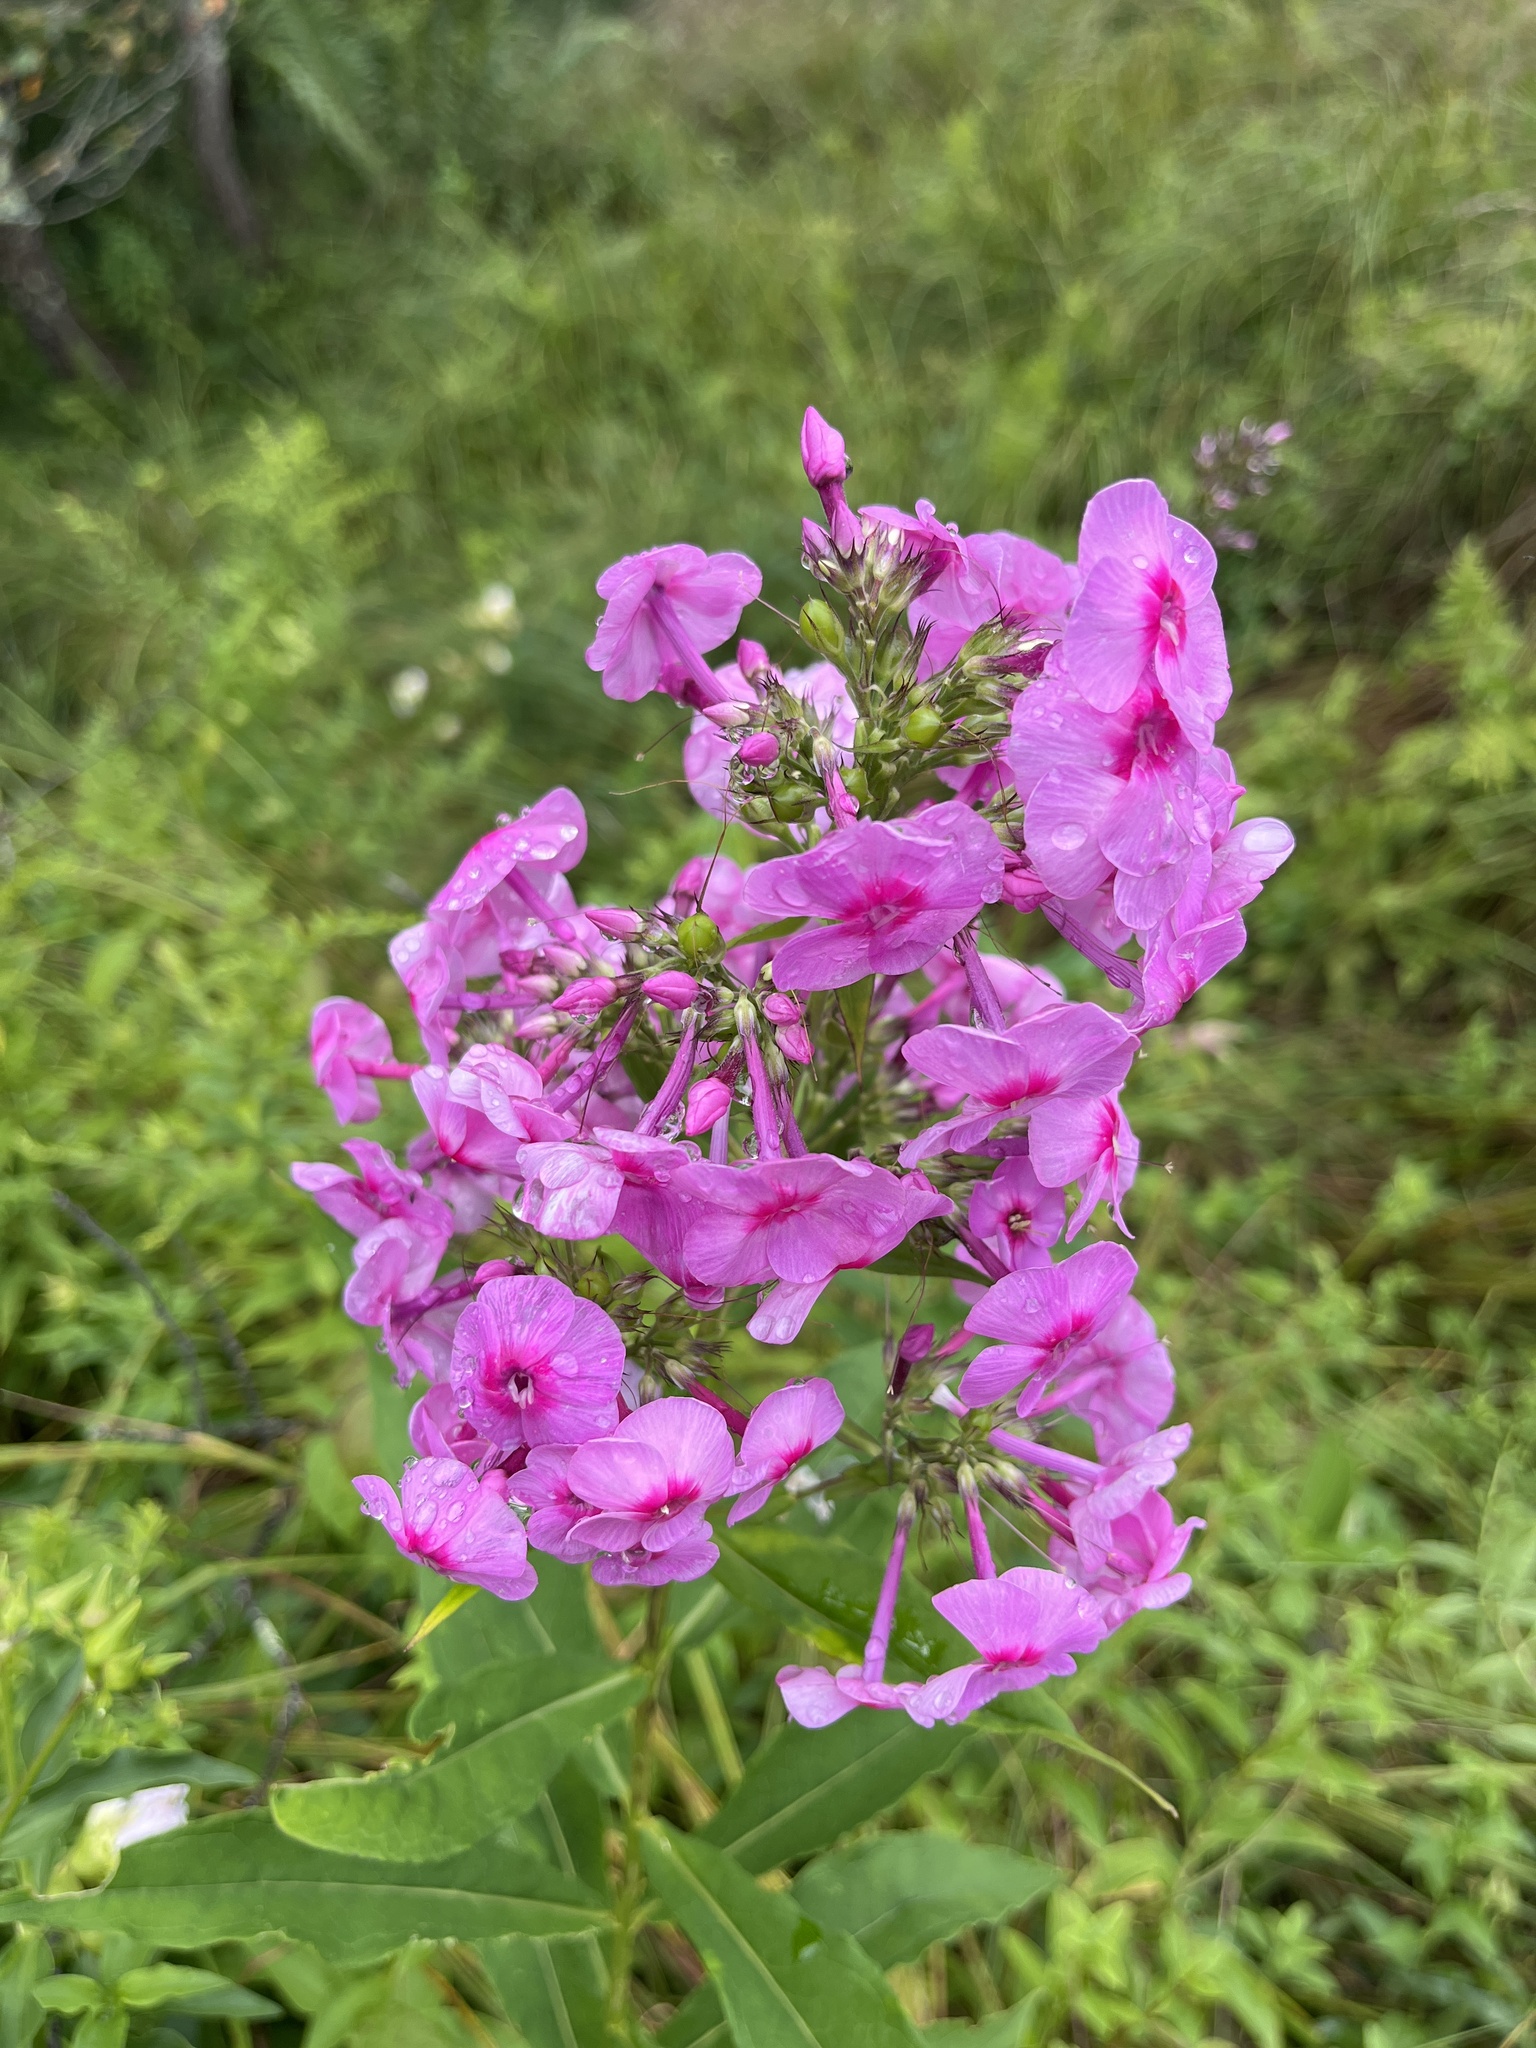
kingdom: Plantae
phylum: Tracheophyta
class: Magnoliopsida
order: Ericales
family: Polemoniaceae
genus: Phlox
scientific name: Phlox paniculata
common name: Fall phlox
